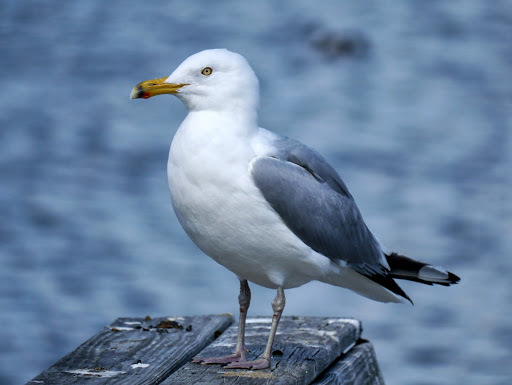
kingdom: Animalia
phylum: Chordata
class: Aves
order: Charadriiformes
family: Laridae
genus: Larus
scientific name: Larus argentatus
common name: Herring gull
